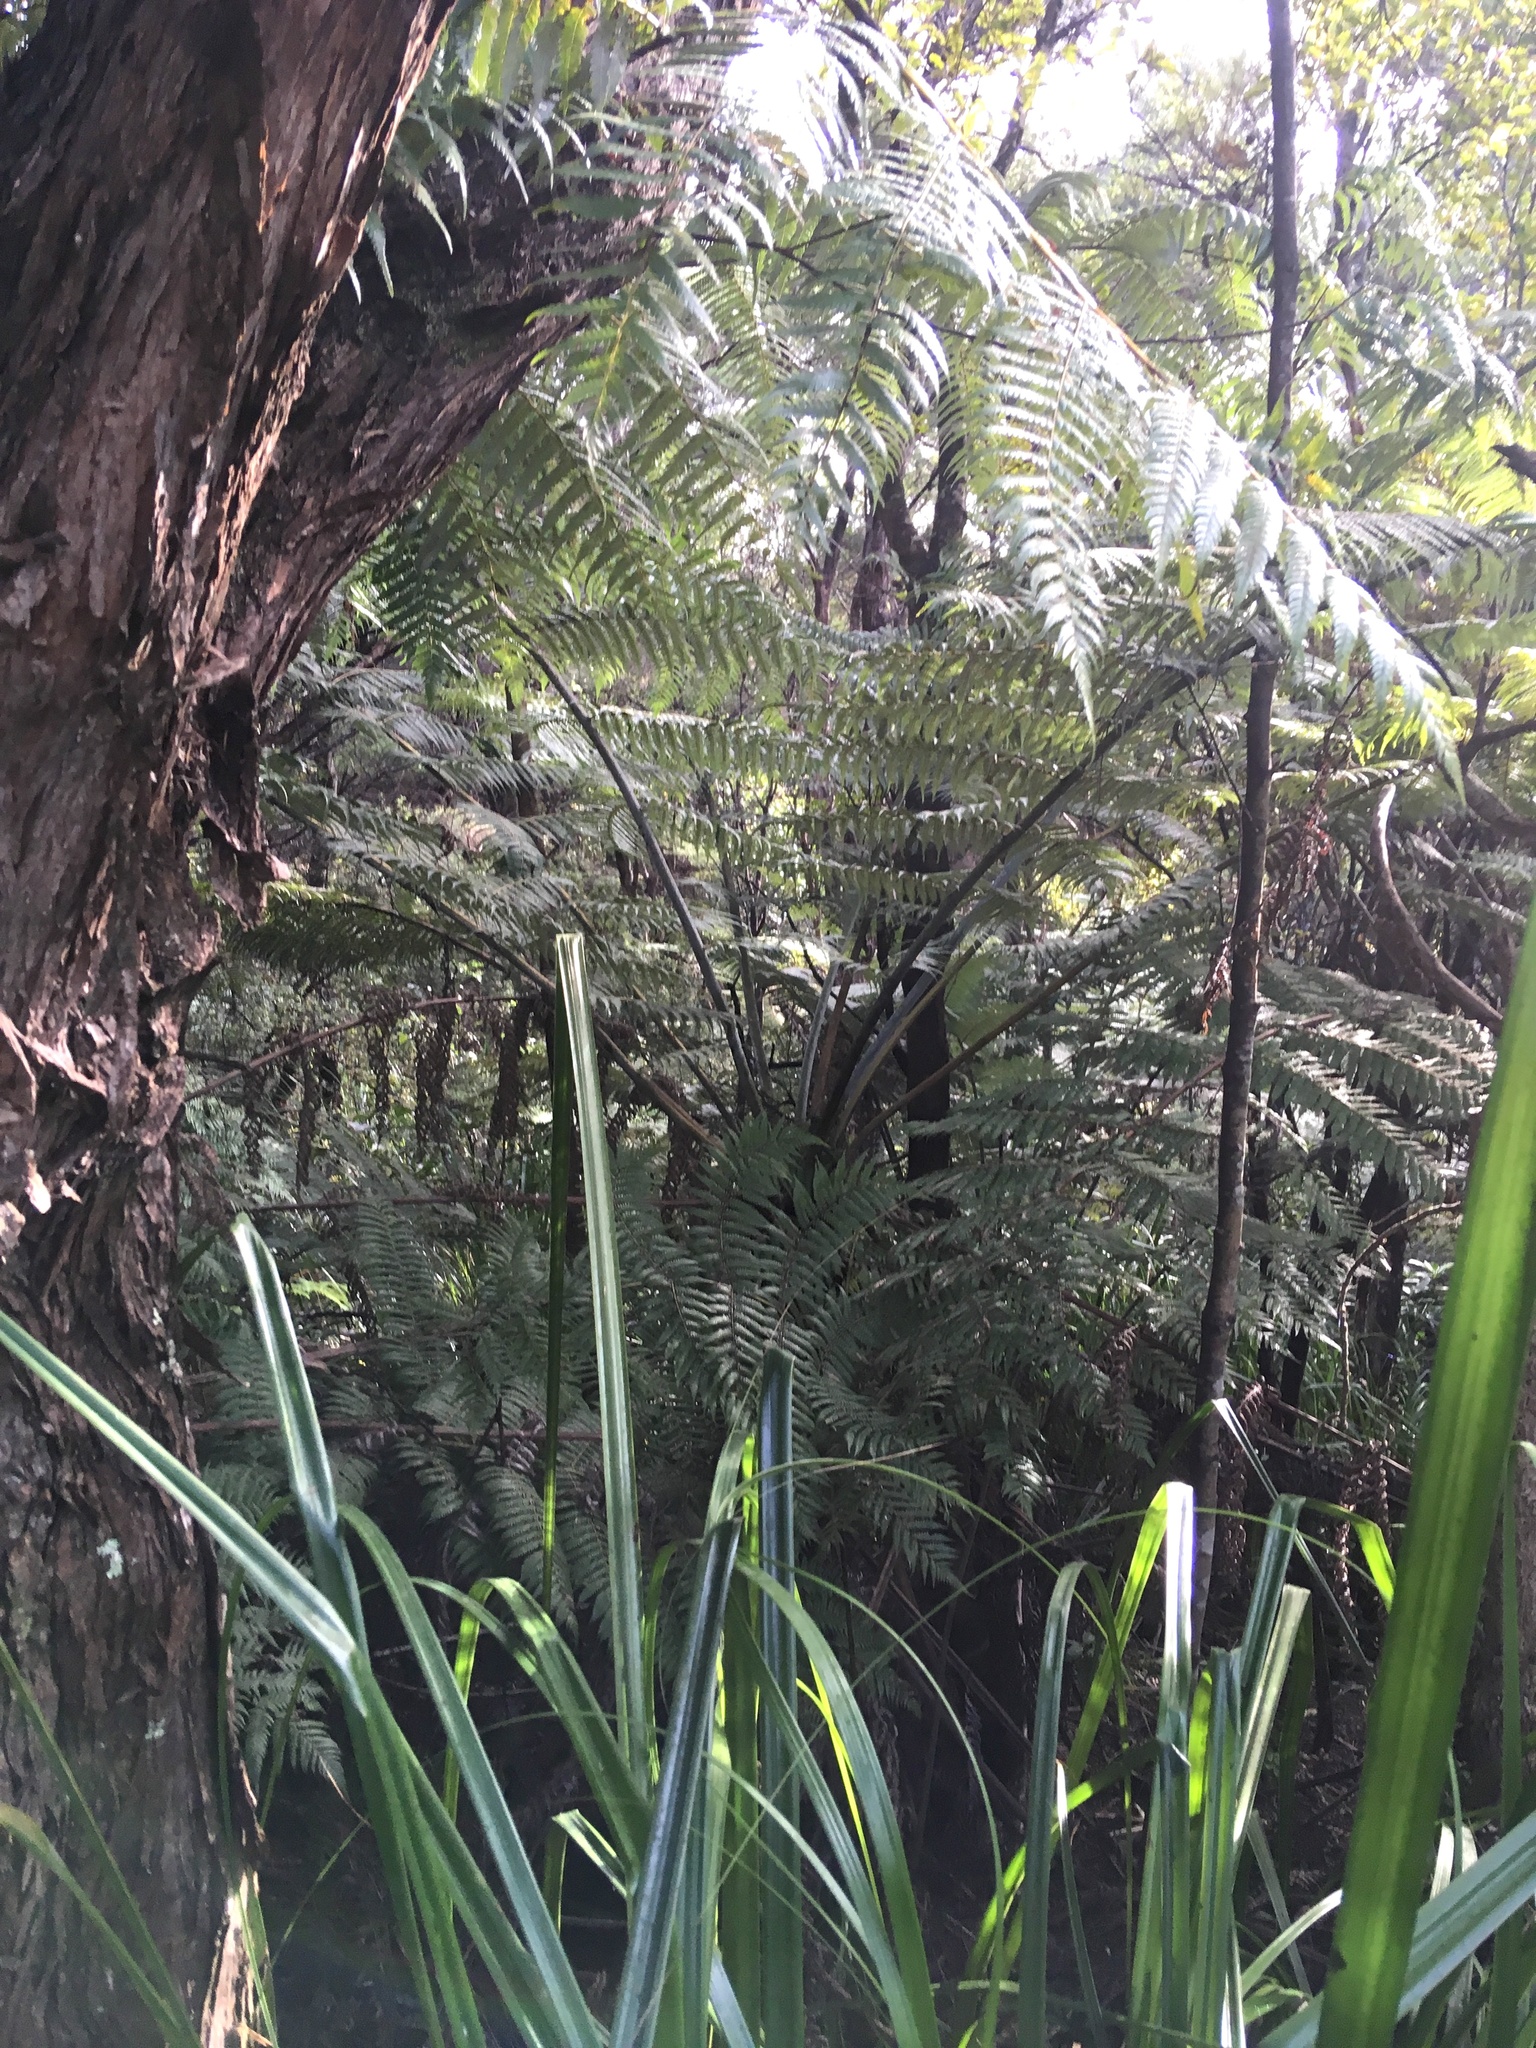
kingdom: Plantae
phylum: Tracheophyta
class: Polypodiopsida
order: Cyatheales
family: Cyatheaceae
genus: Alsophila
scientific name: Alsophila dealbata
